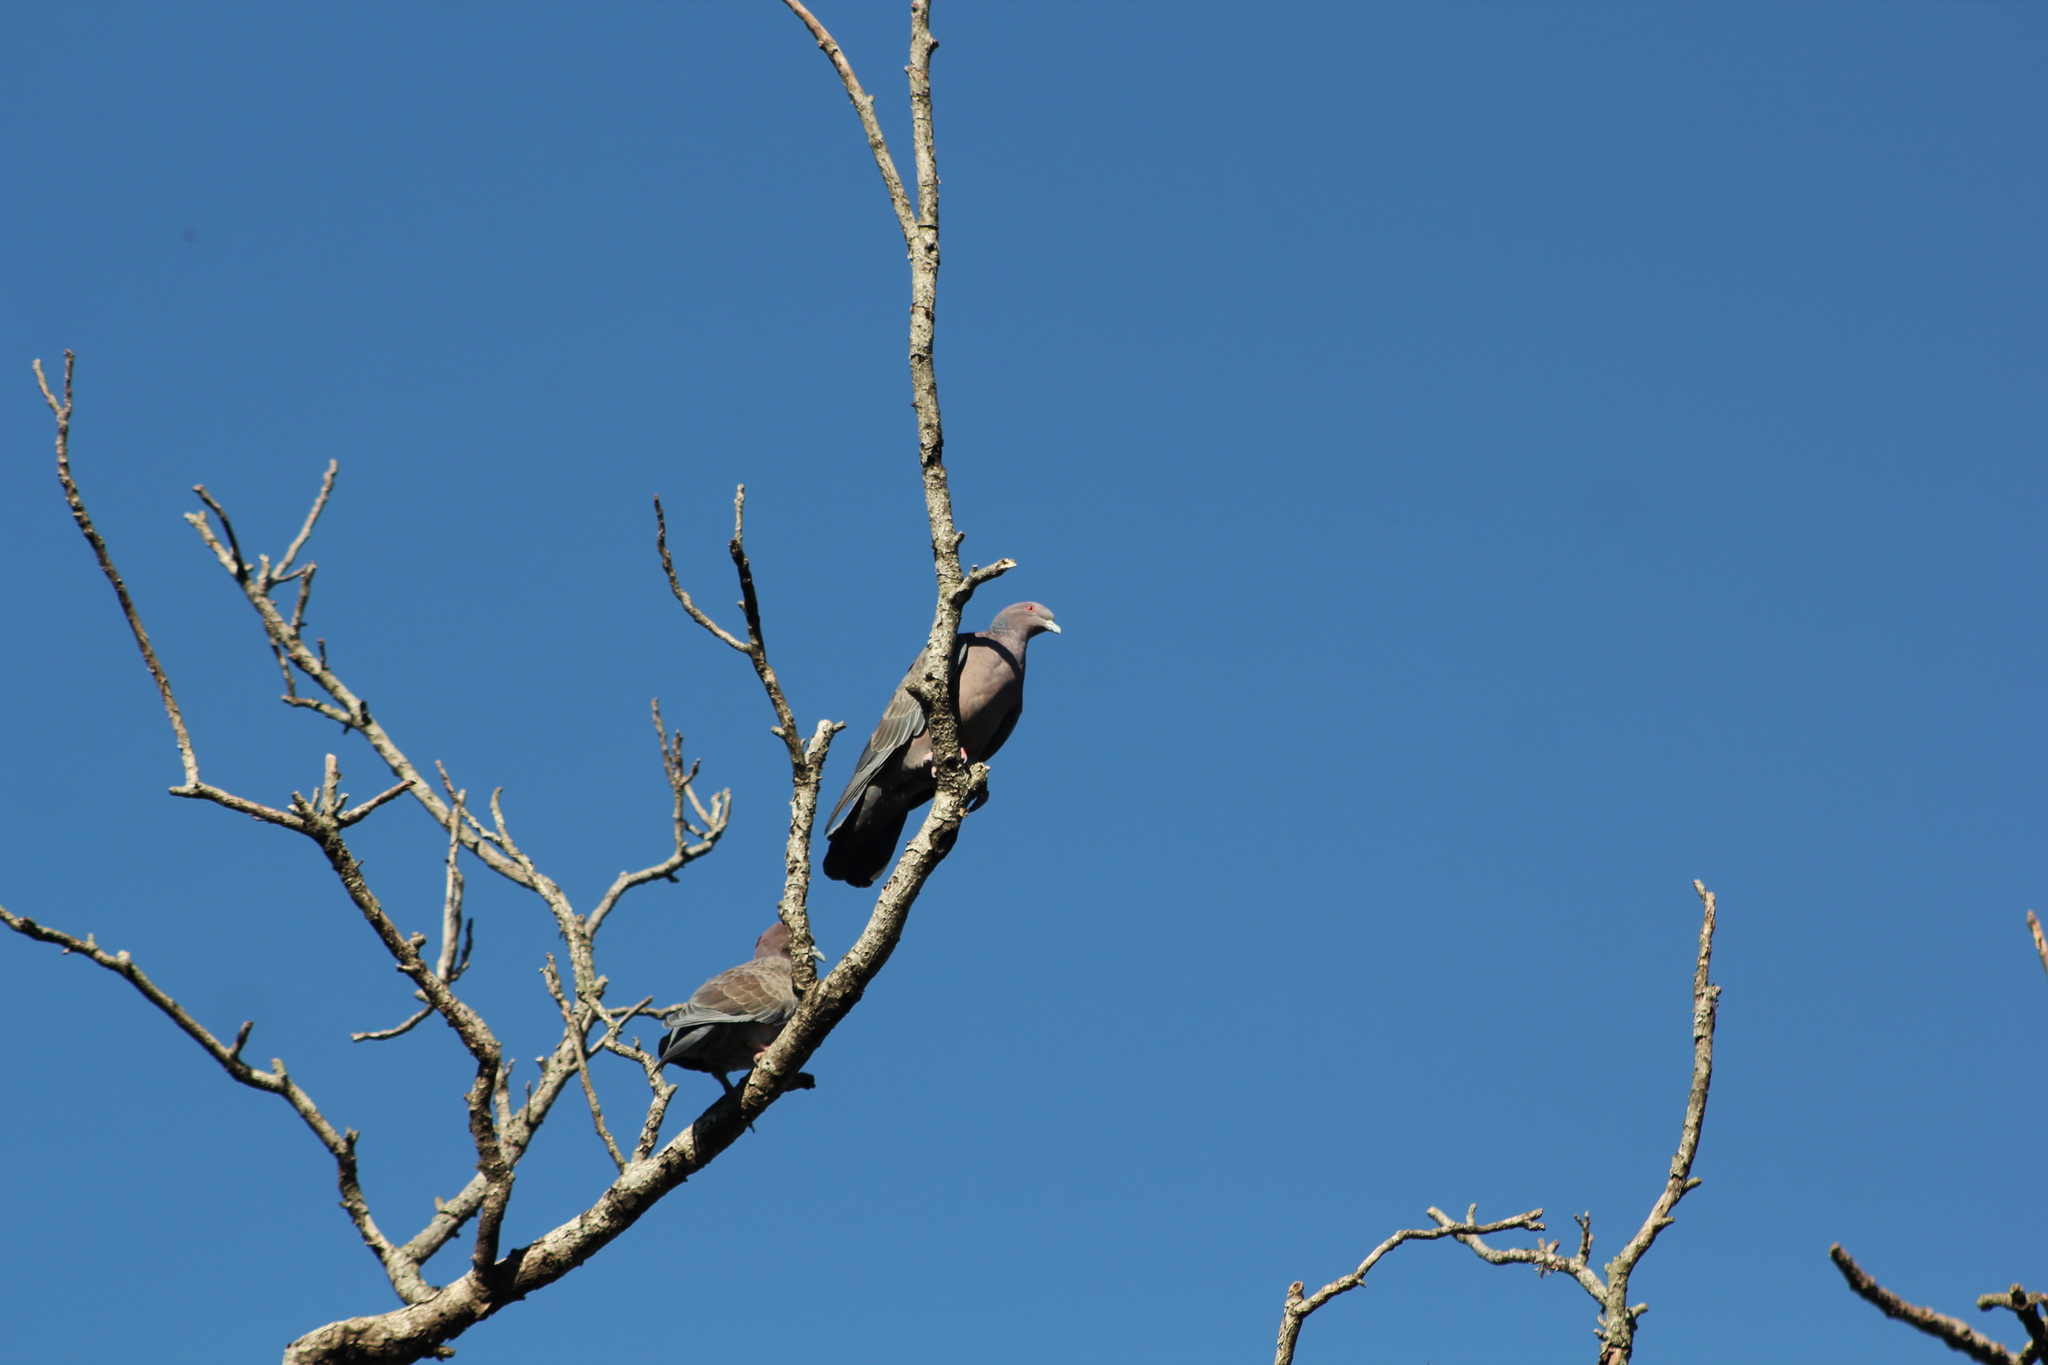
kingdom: Animalia
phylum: Chordata
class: Aves
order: Columbiformes
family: Columbidae
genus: Patagioenas
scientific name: Patagioenas picazuro
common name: Picazuro pigeon
